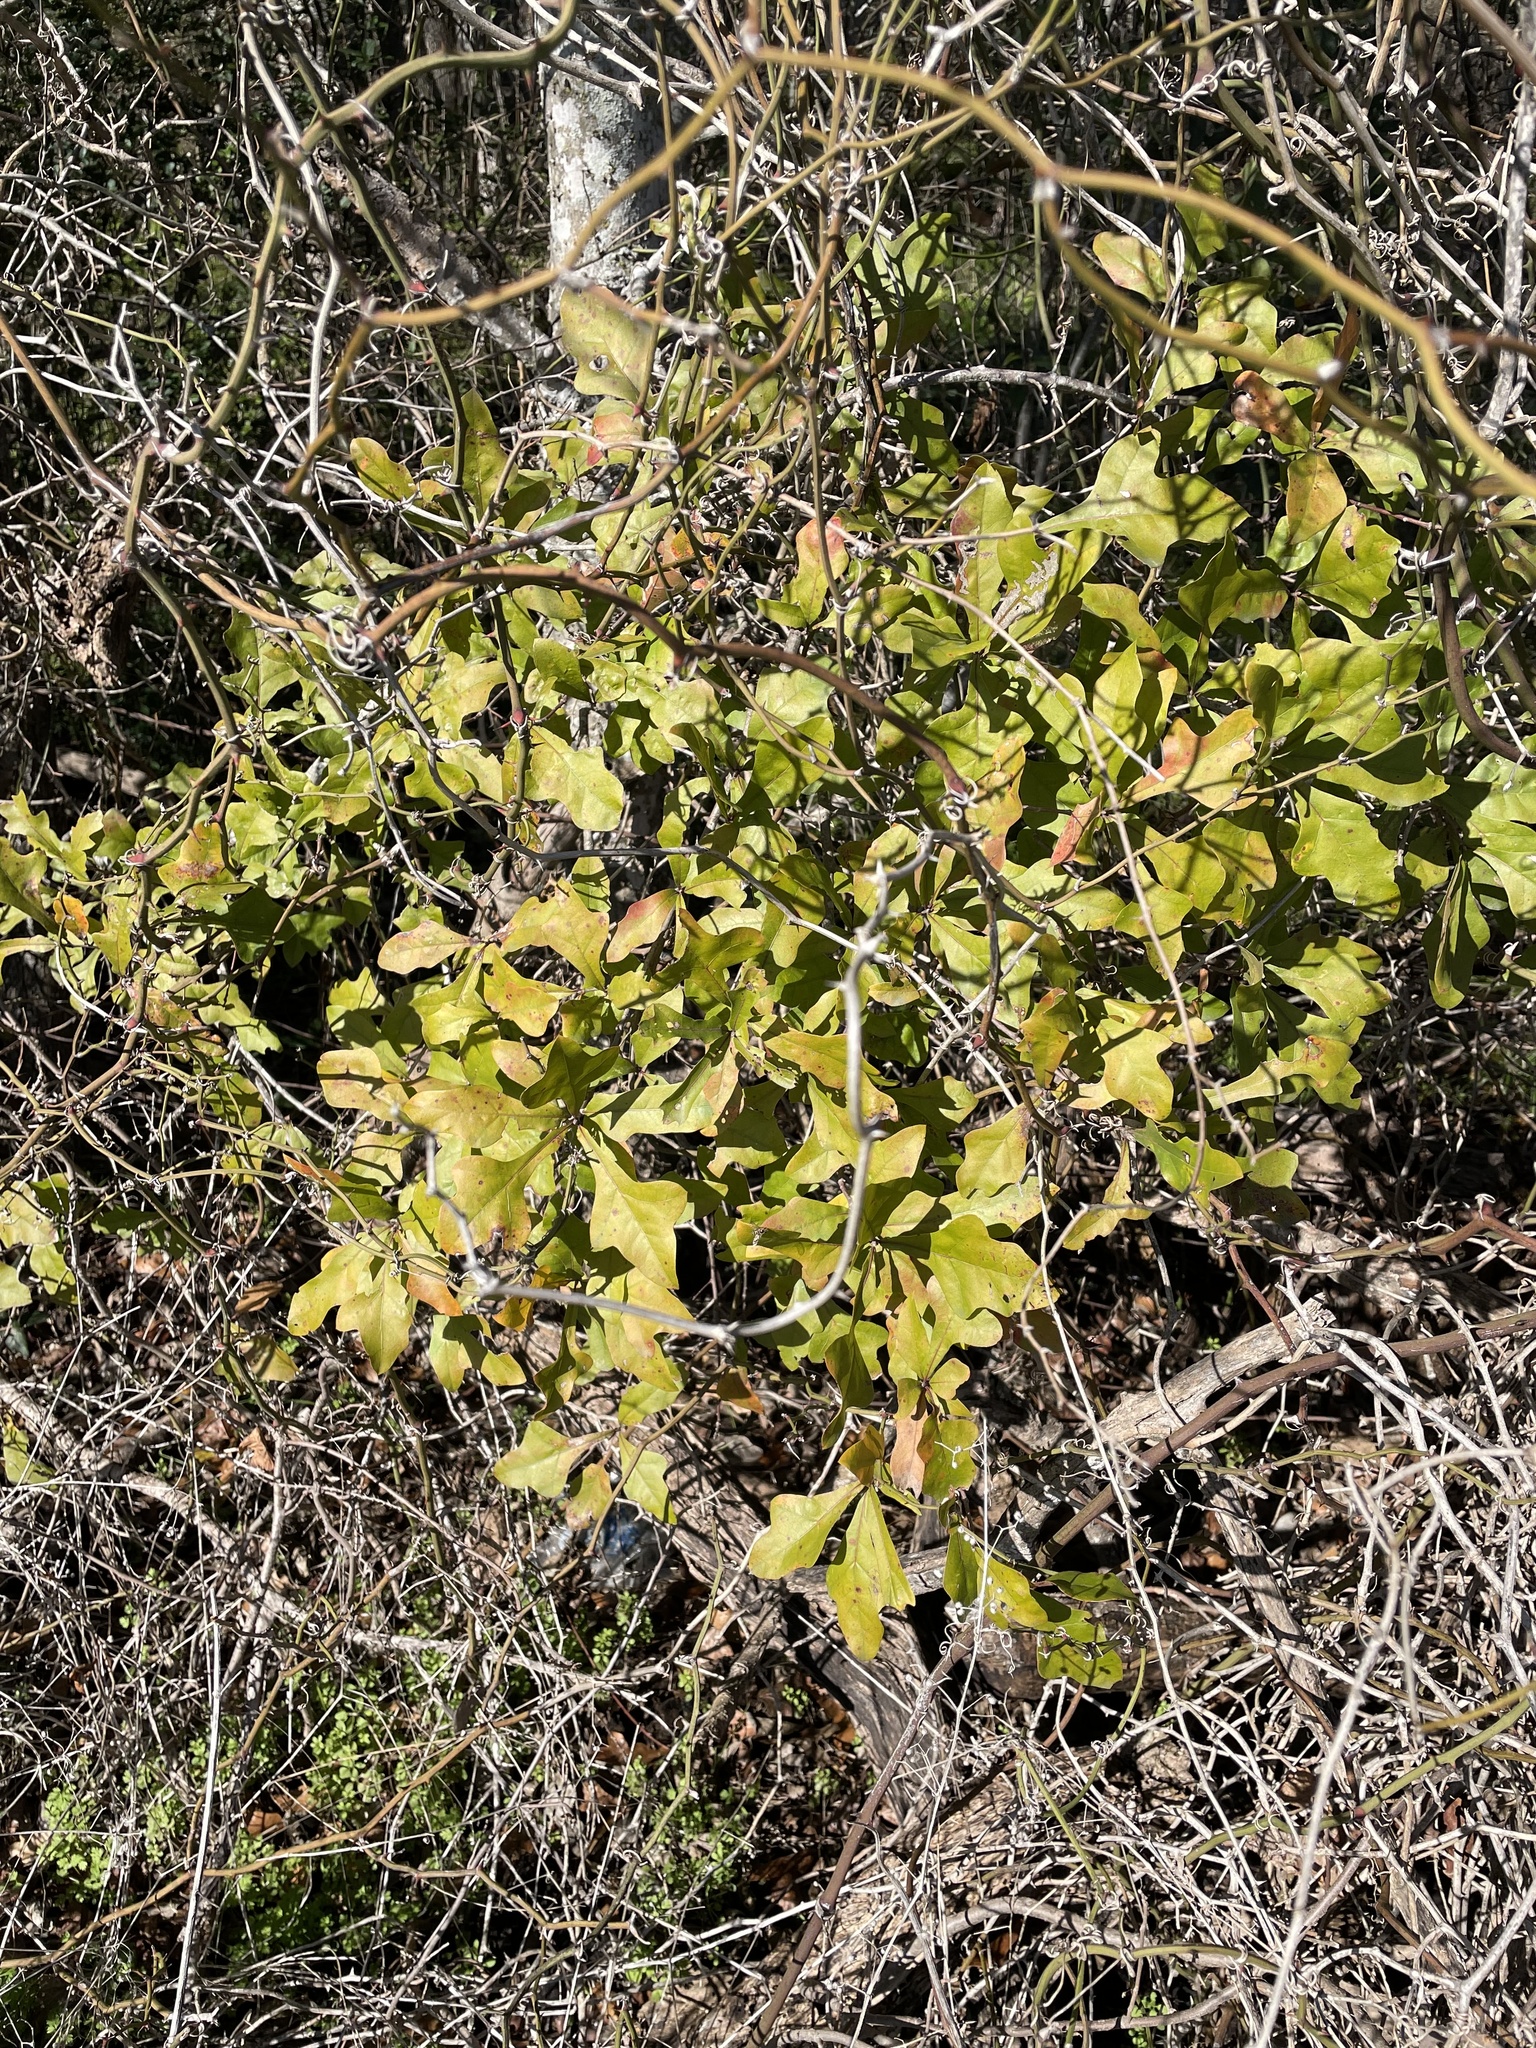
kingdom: Plantae
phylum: Tracheophyta
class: Magnoliopsida
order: Fagales
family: Fagaceae
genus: Quercus
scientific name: Quercus nigra
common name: Water oak
